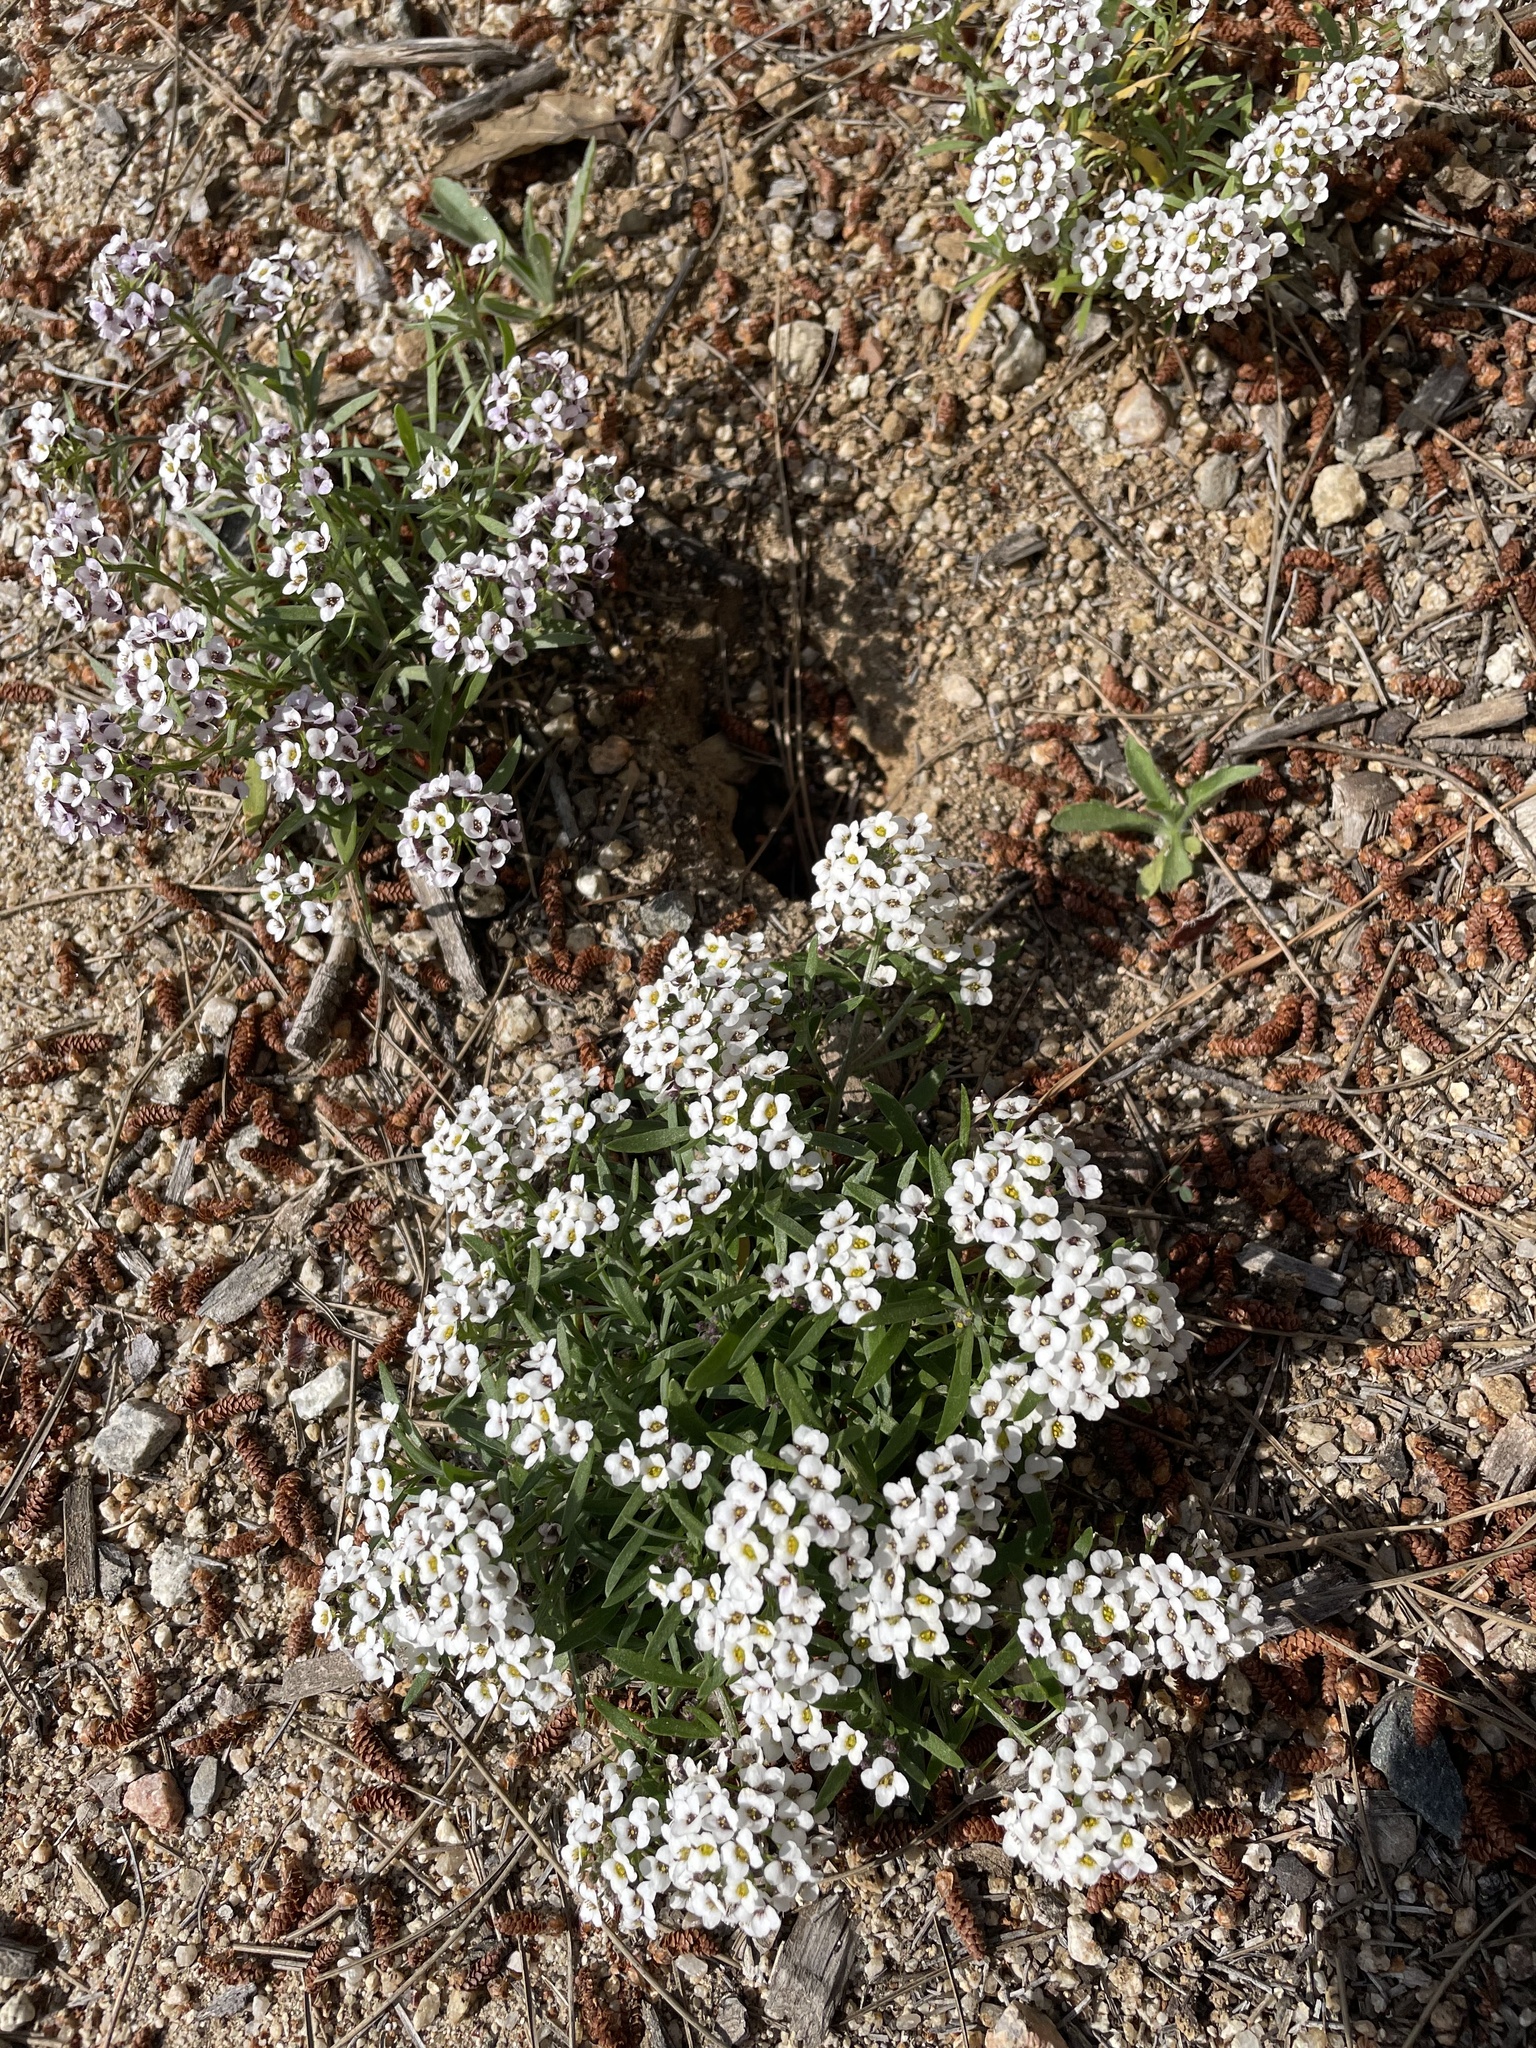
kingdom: Plantae
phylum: Tracheophyta
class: Magnoliopsida
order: Brassicales
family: Brassicaceae
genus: Lobularia
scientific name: Lobularia maritima
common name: Sweet alison
